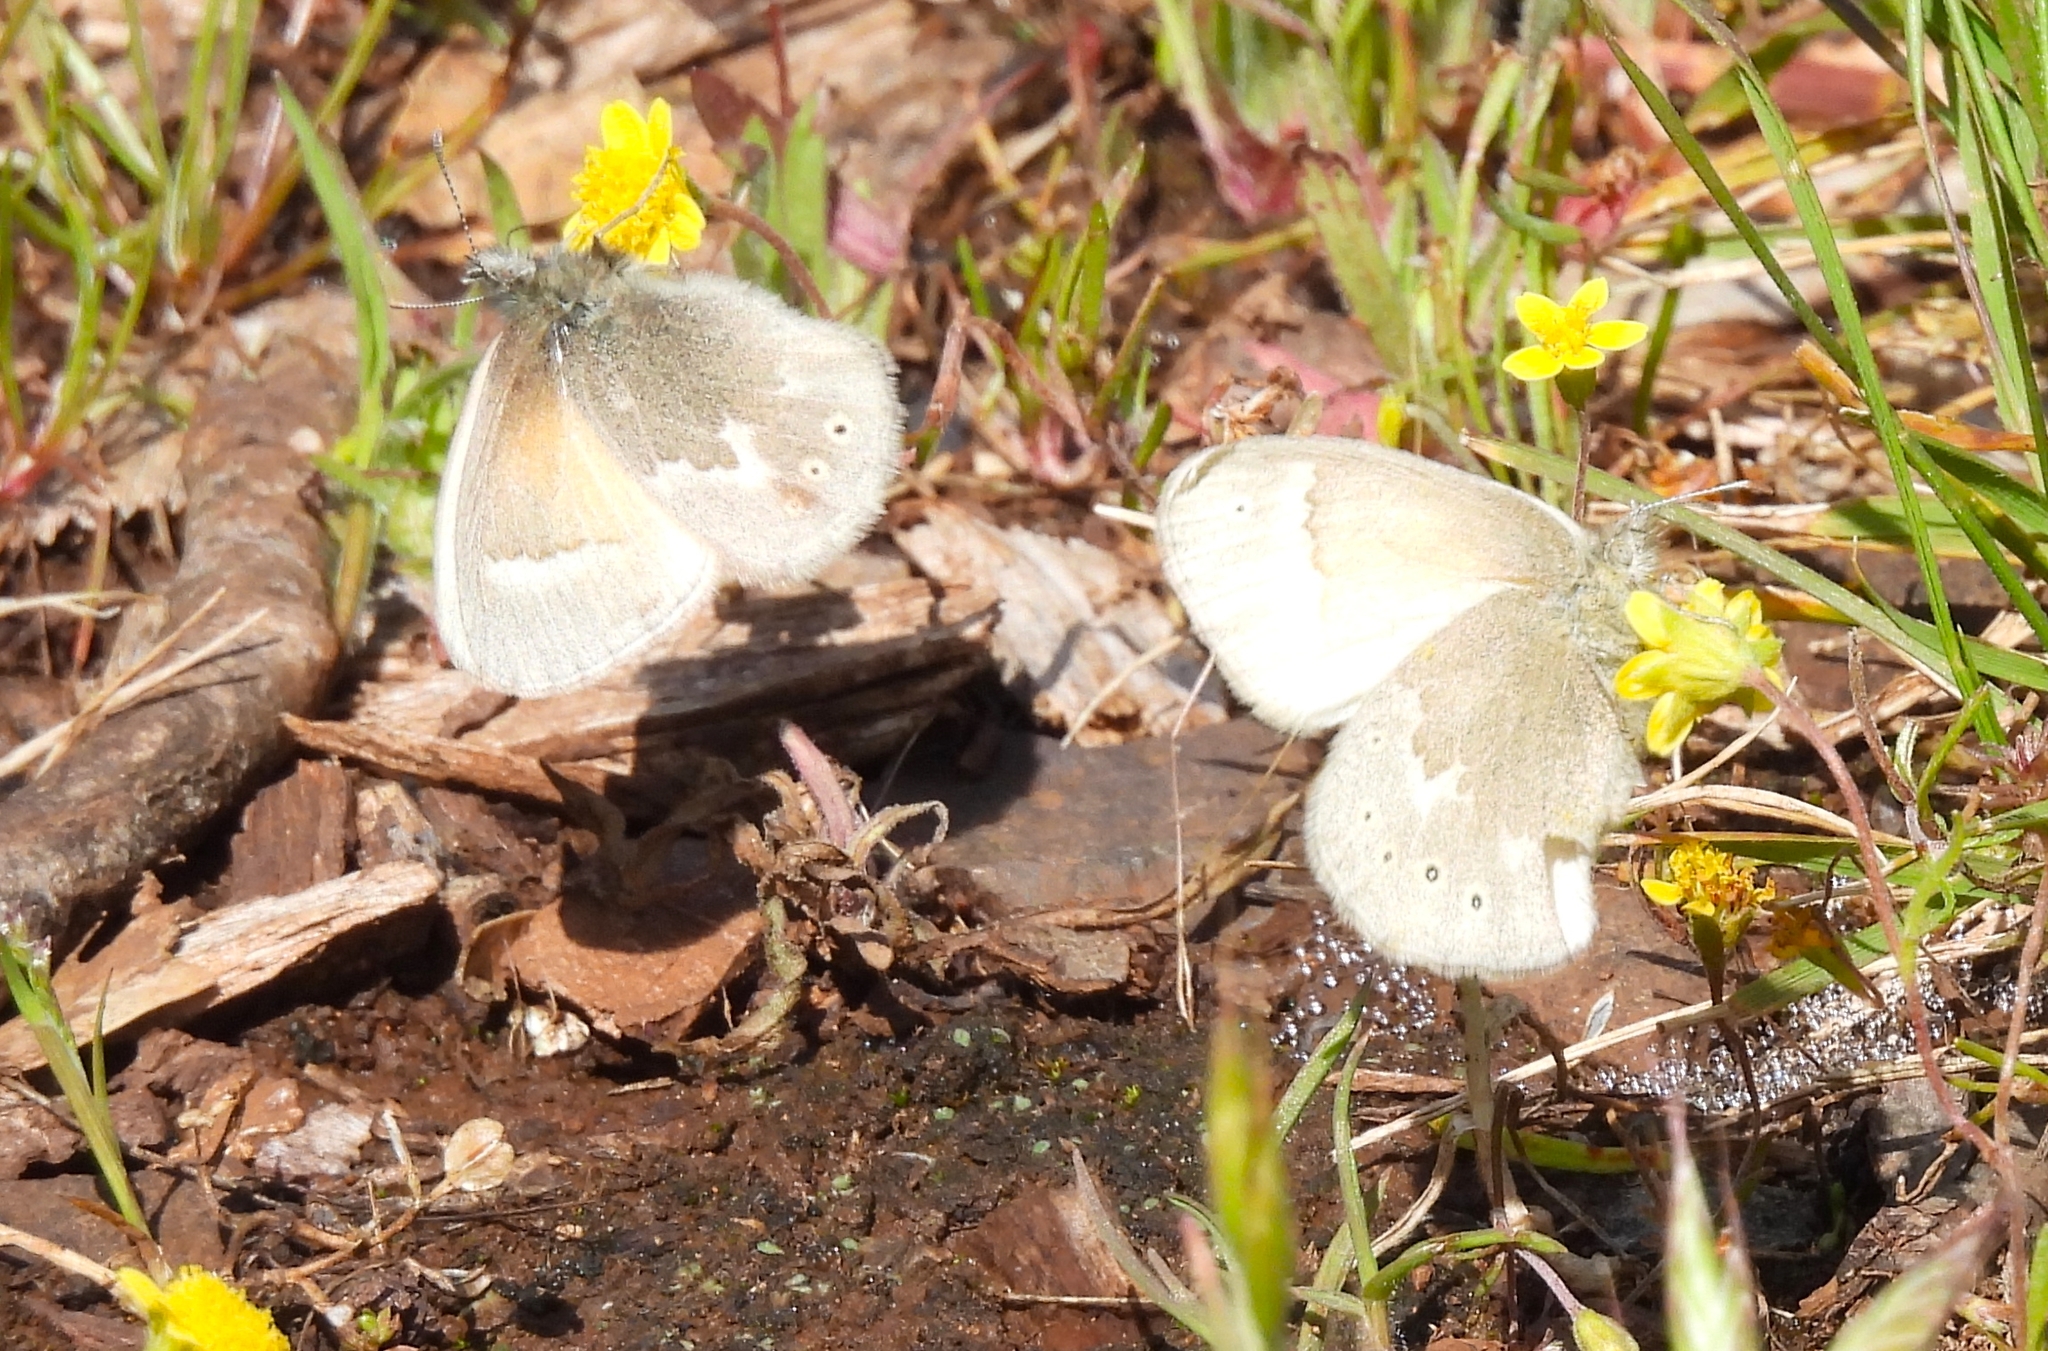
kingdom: Animalia
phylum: Arthropoda
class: Insecta
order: Lepidoptera
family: Nymphalidae
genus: Coenonympha
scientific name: Coenonympha california
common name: Common ringlet
